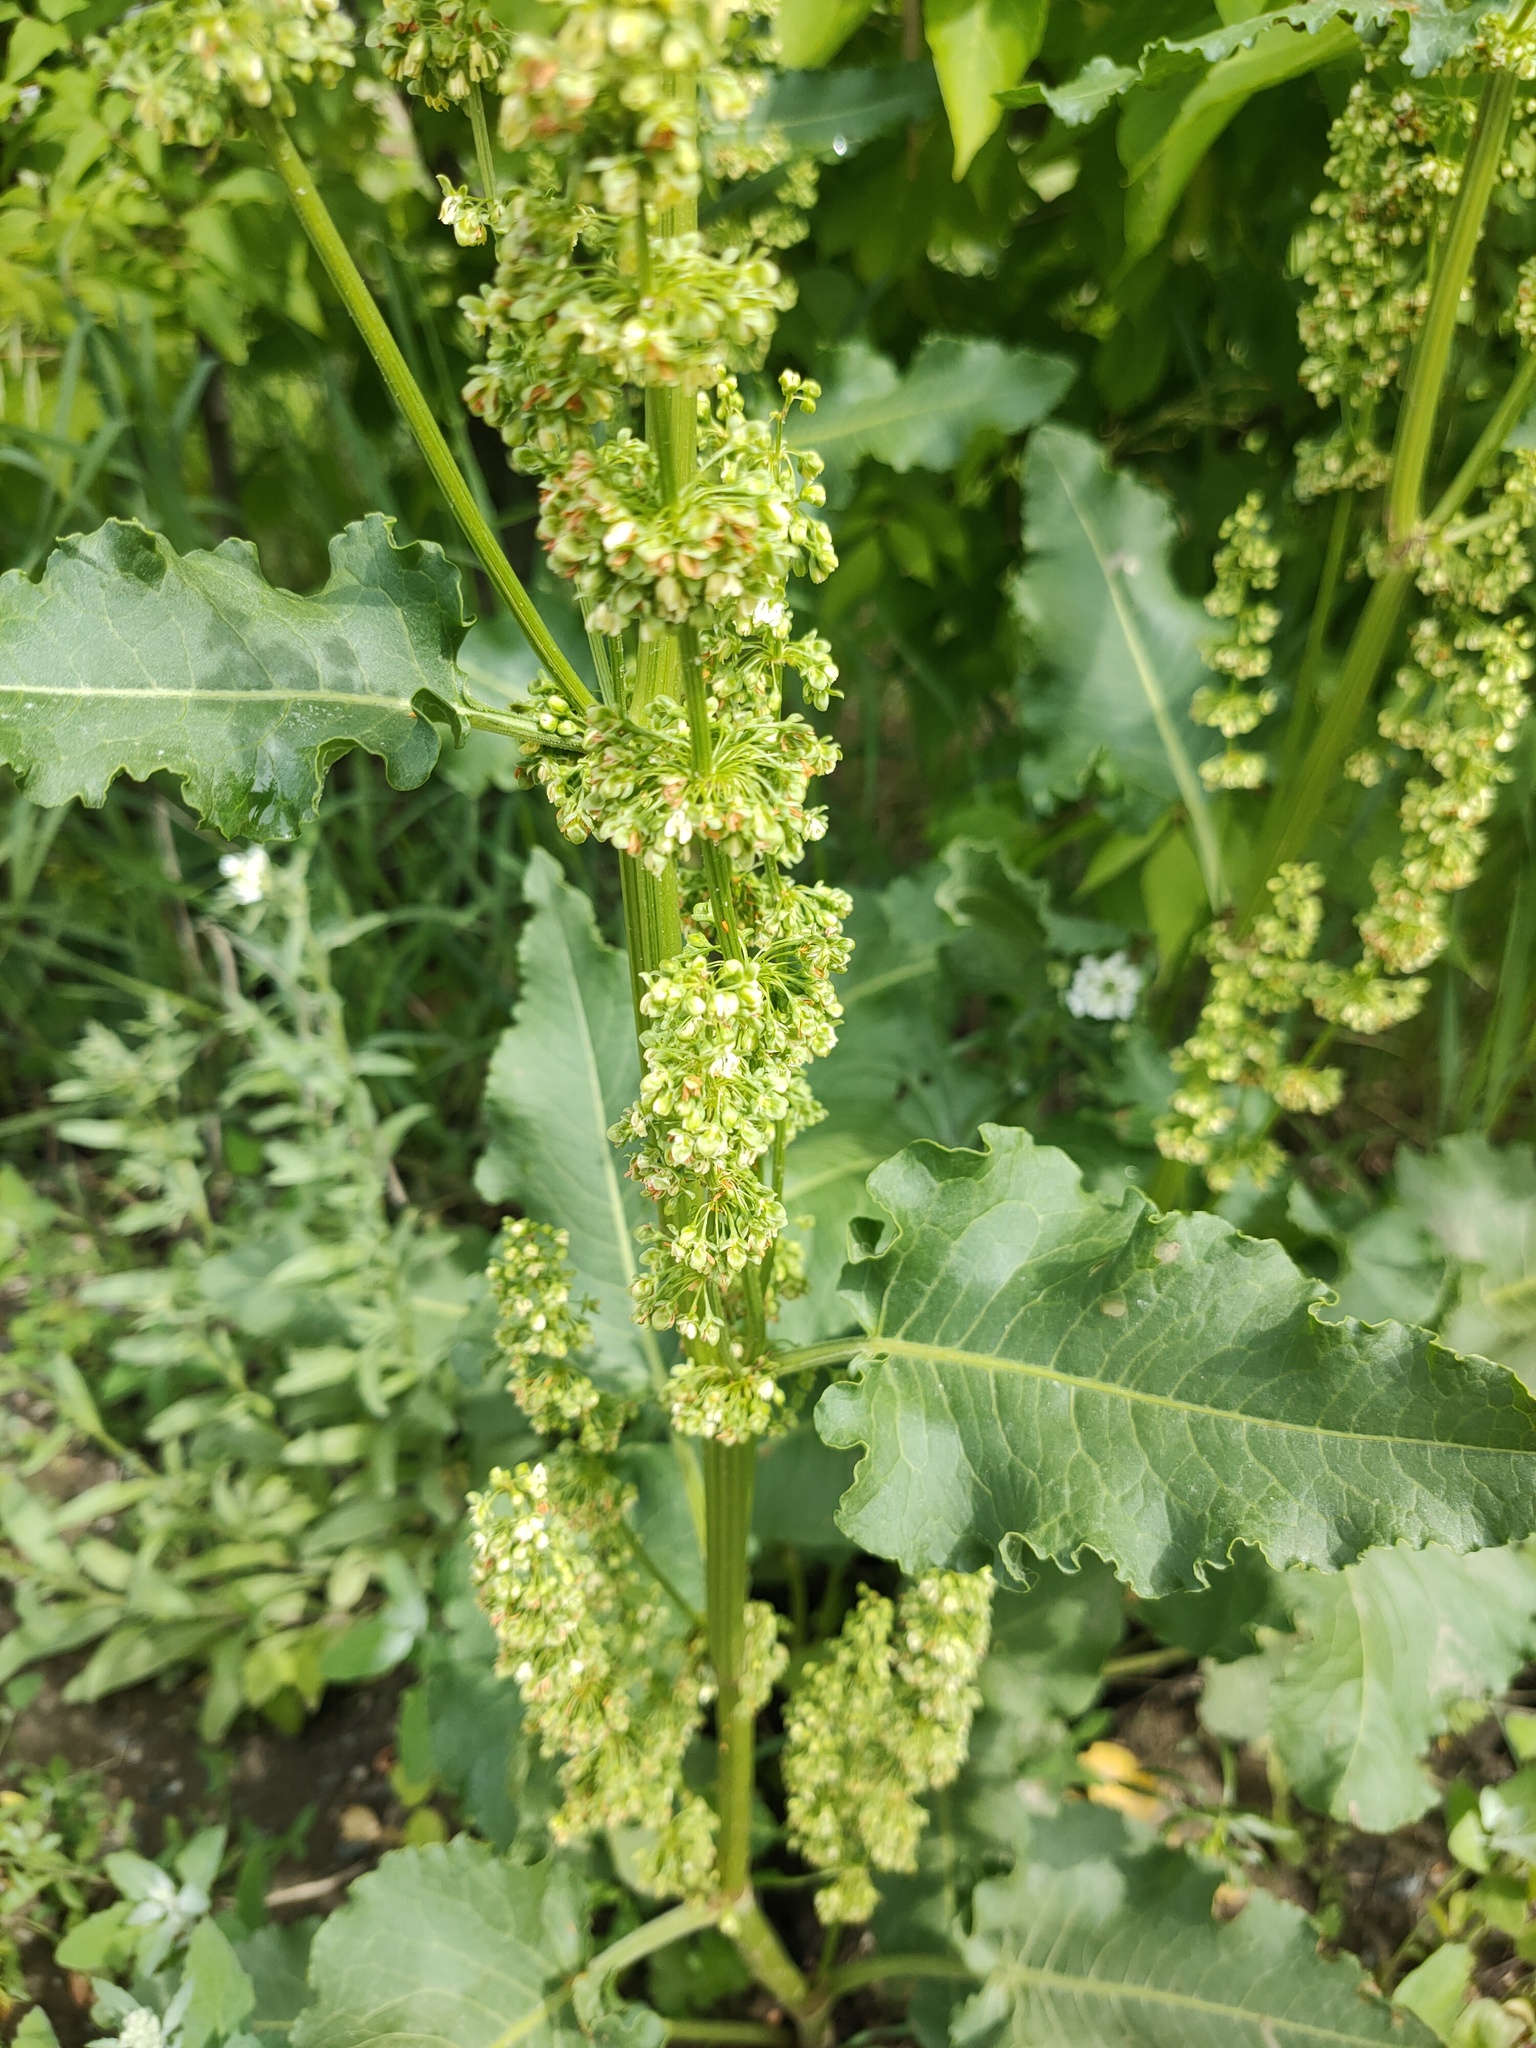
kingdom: Plantae
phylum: Tracheophyta
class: Magnoliopsida
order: Caryophyllales
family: Polygonaceae
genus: Rumex
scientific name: Rumex confertus
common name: Russian dock
